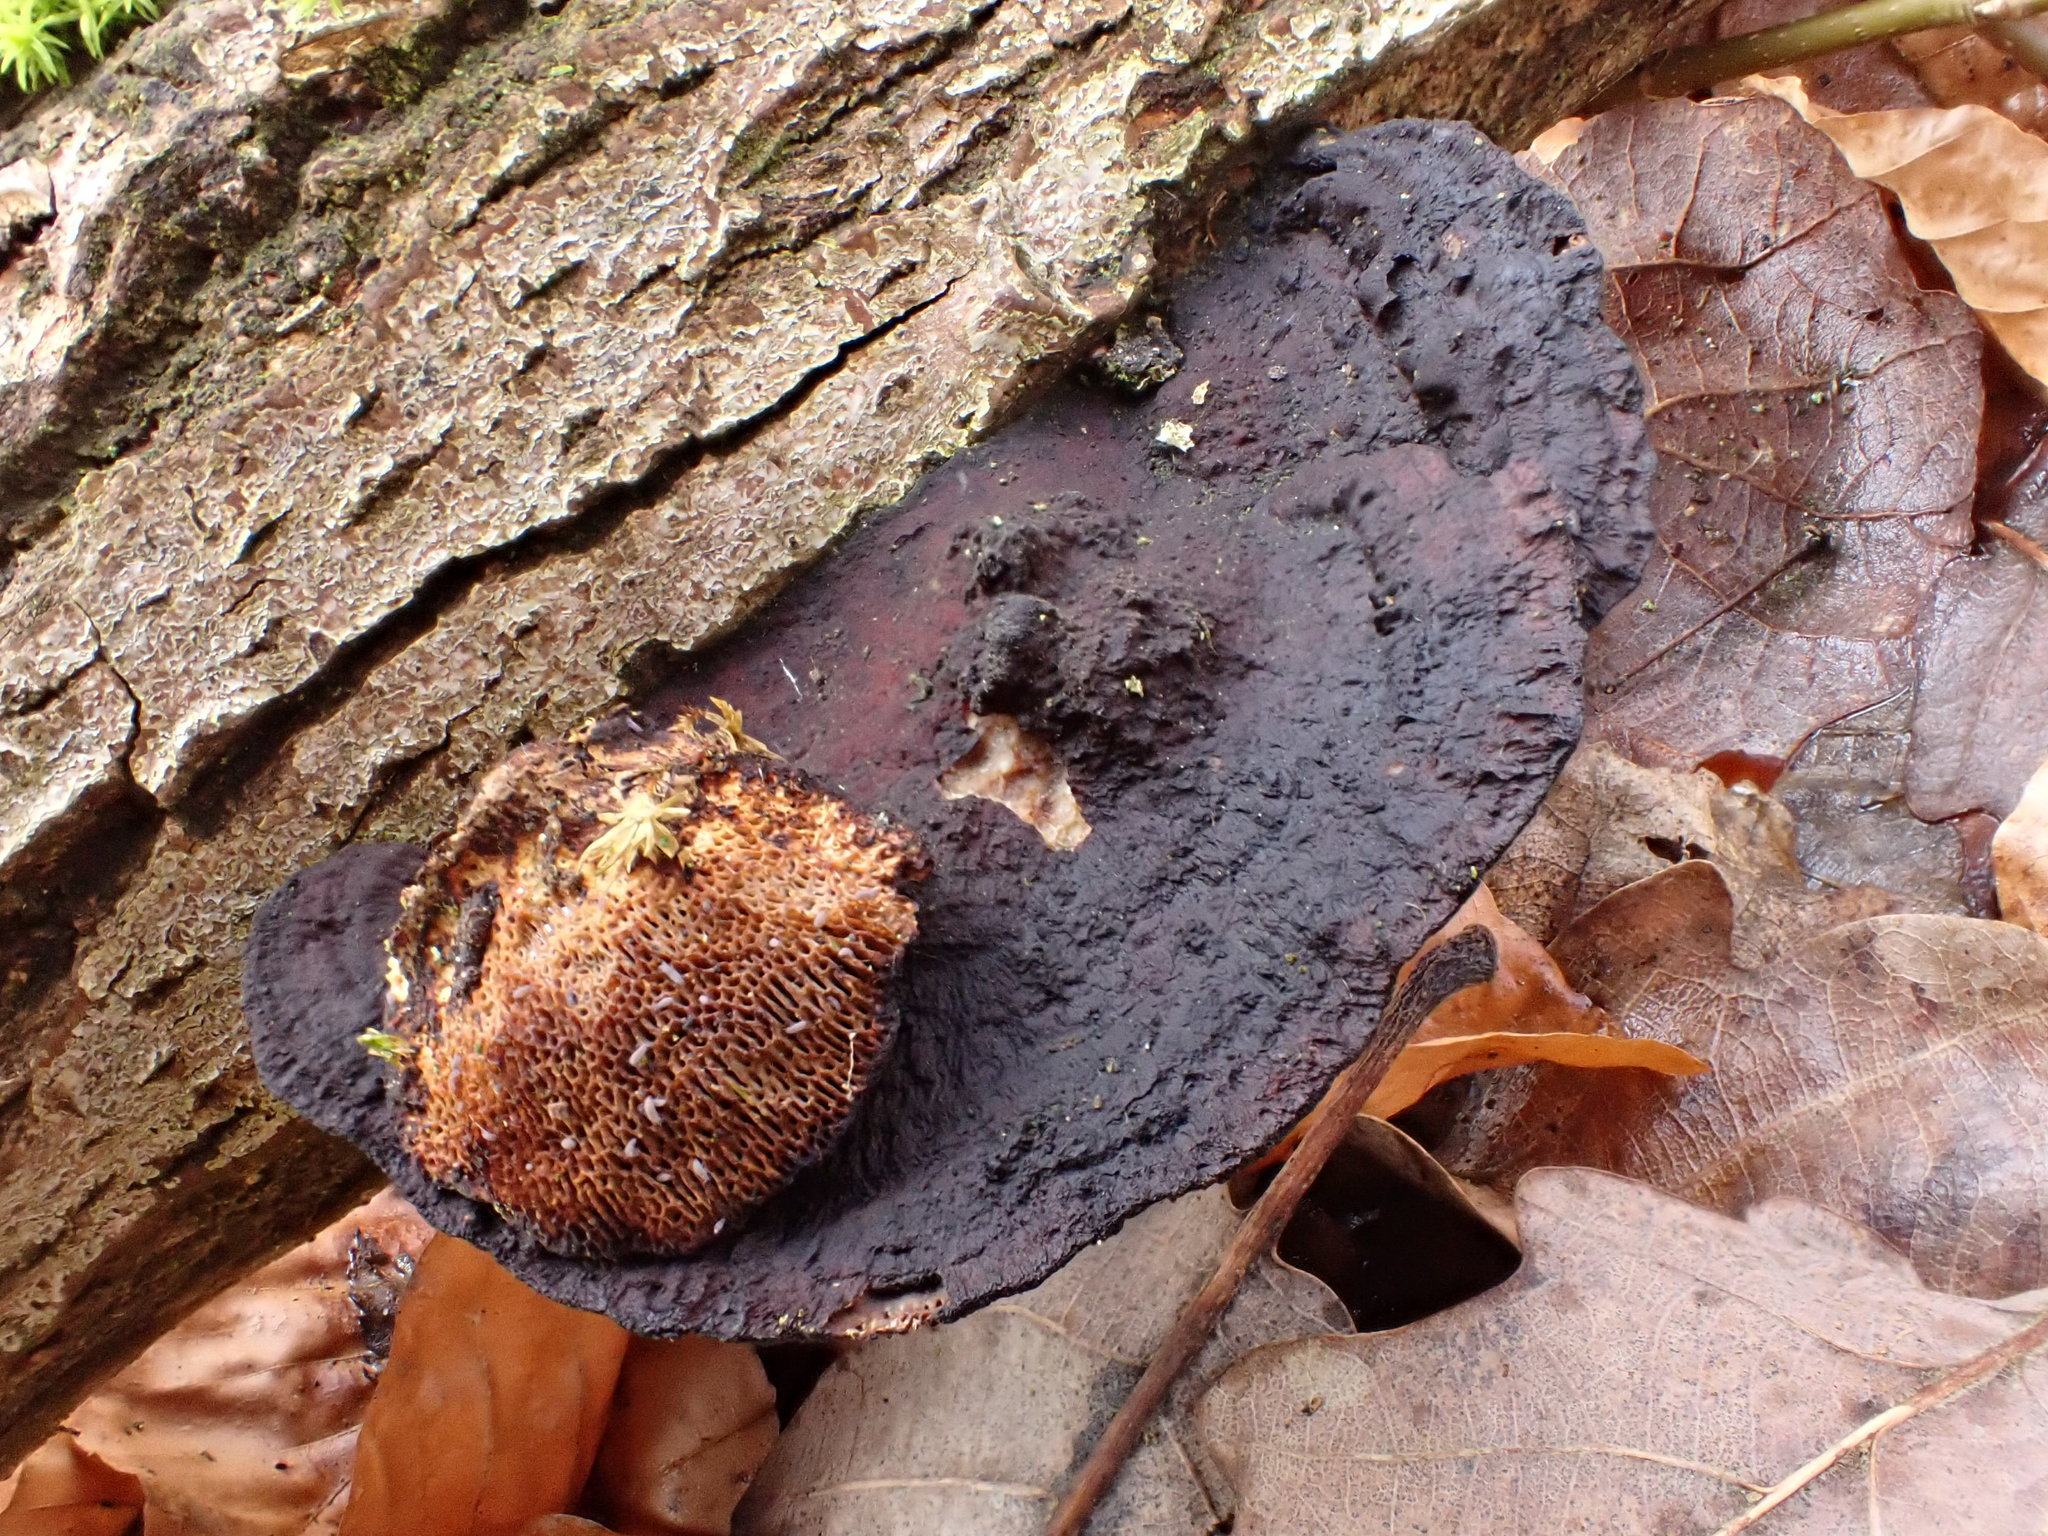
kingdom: Fungi
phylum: Basidiomycota
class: Agaricomycetes
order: Polyporales
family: Polyporaceae
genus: Daedaleopsis
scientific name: Daedaleopsis confragosa
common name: Blushing bracket
